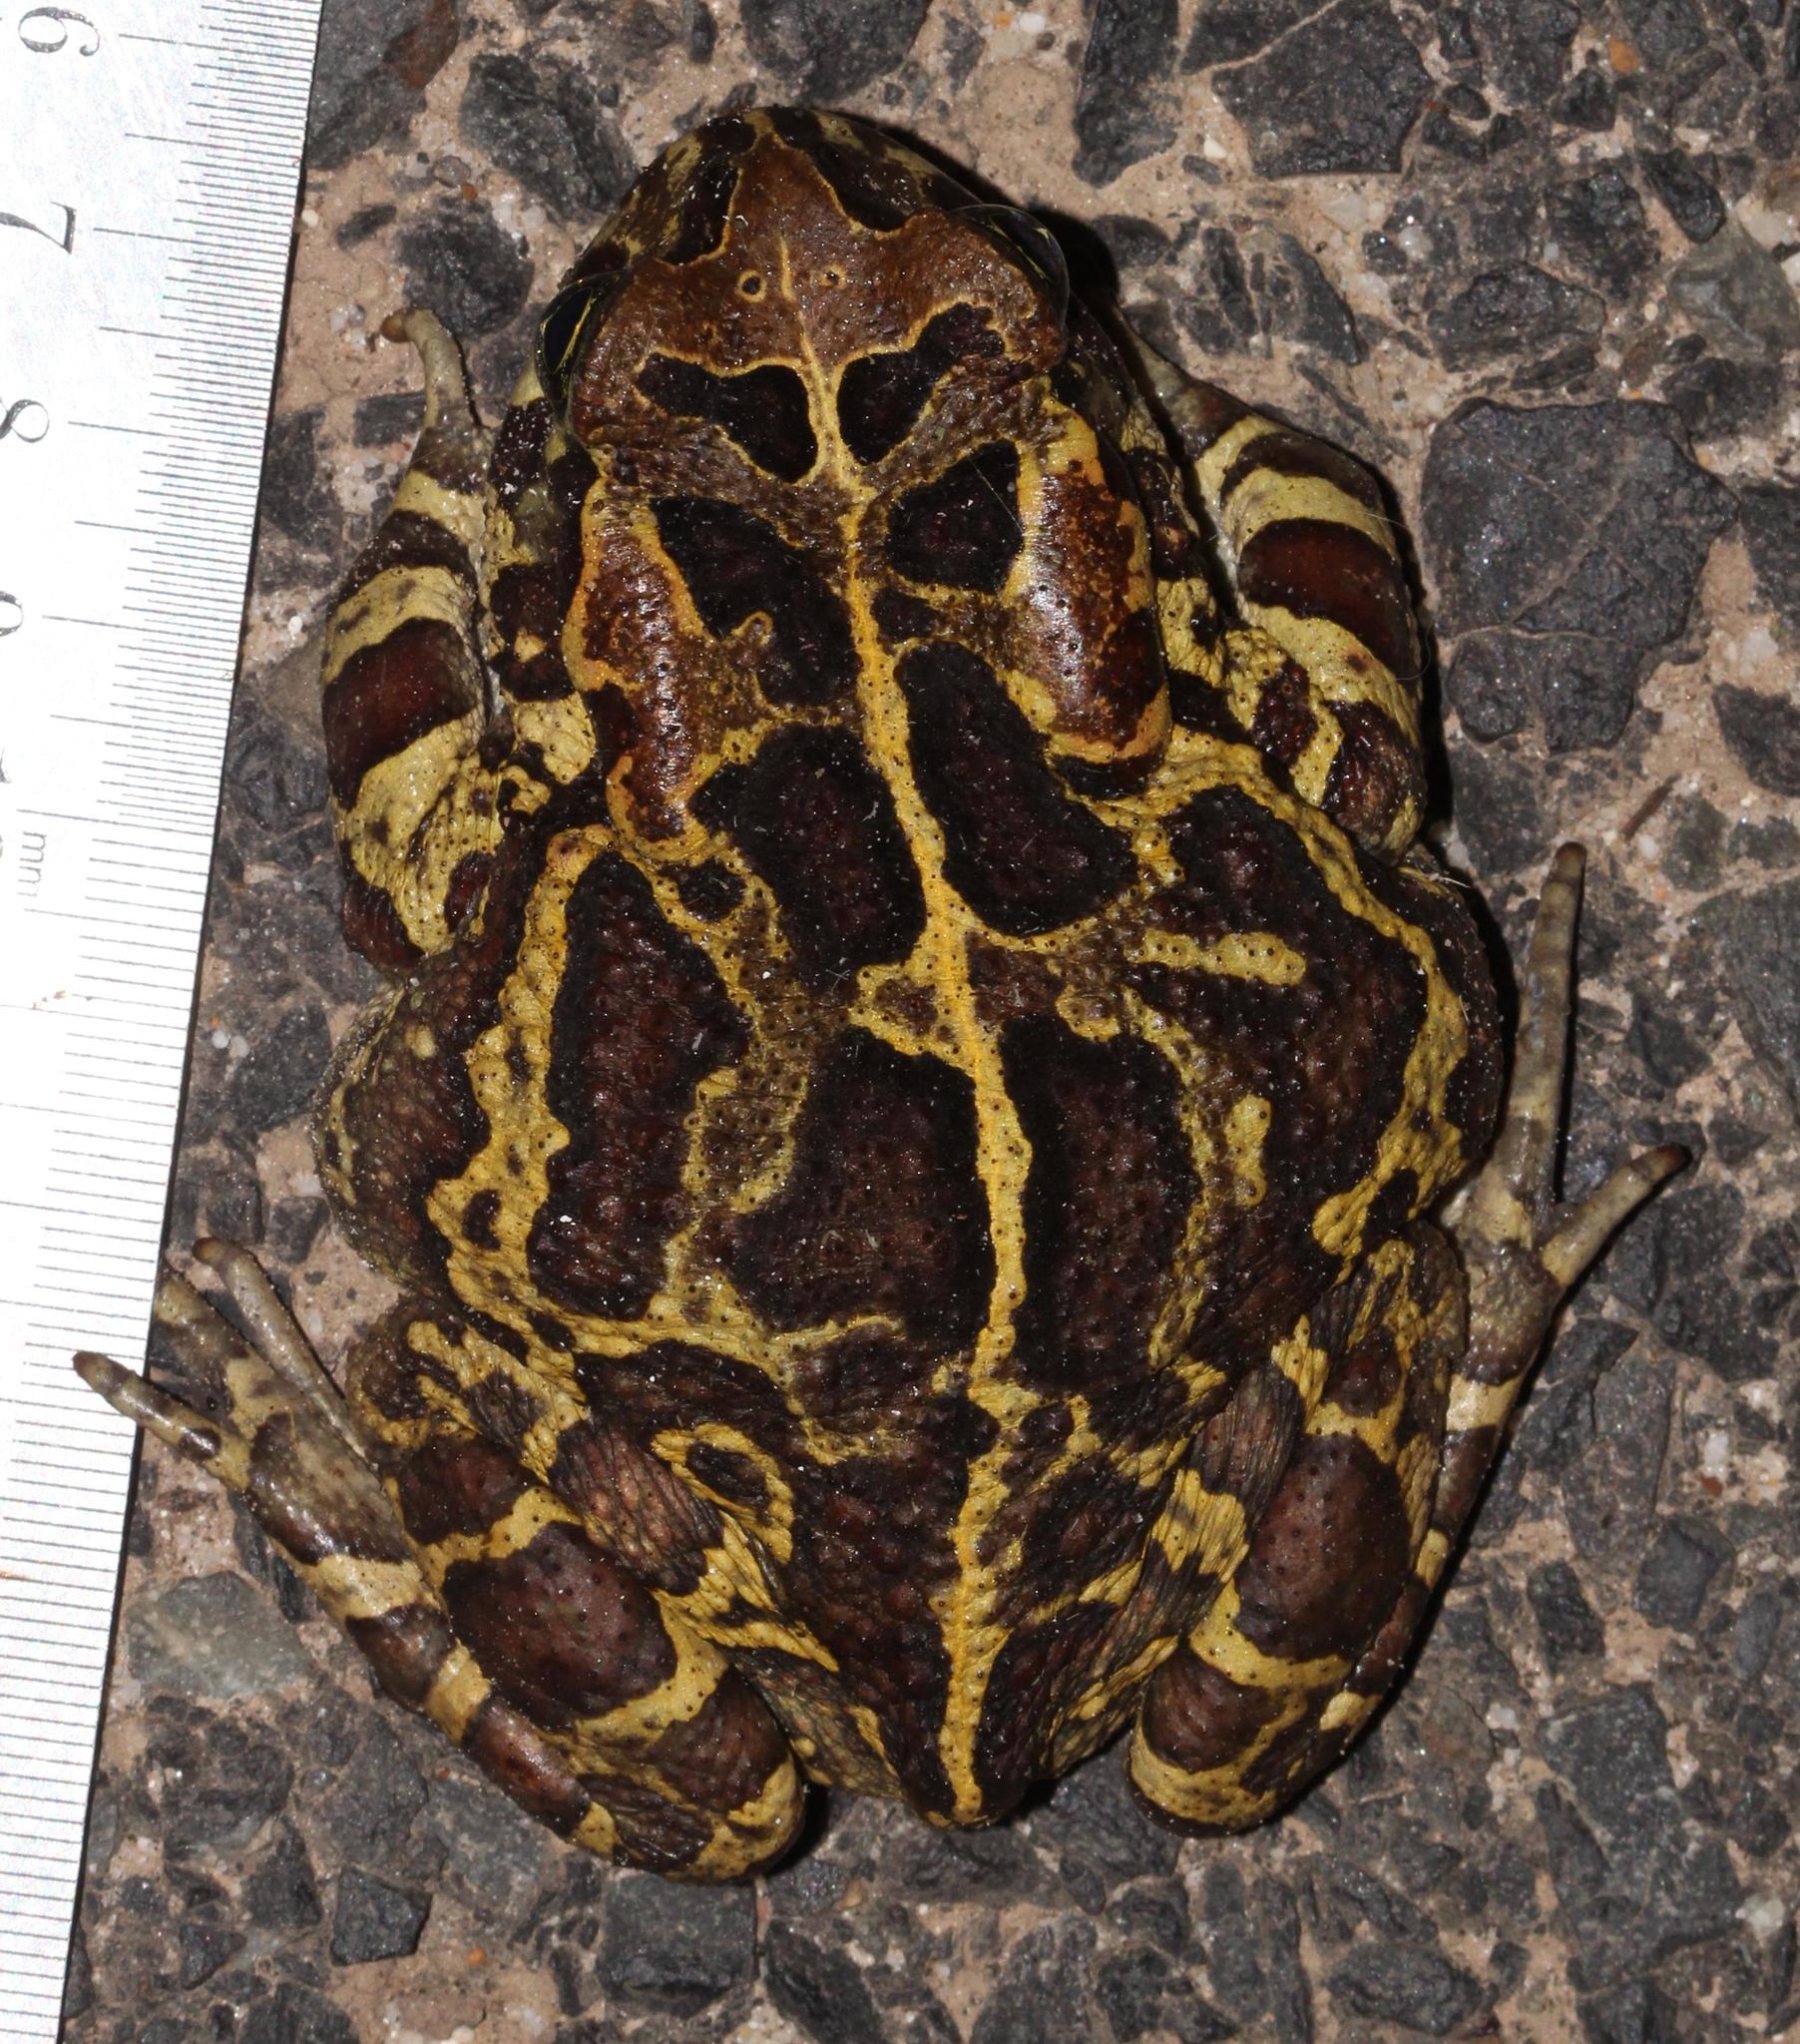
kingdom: Animalia
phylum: Chordata
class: Amphibia
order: Anura
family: Bufonidae
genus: Sclerophrys
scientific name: Sclerophrys pantherina
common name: Panther toad
